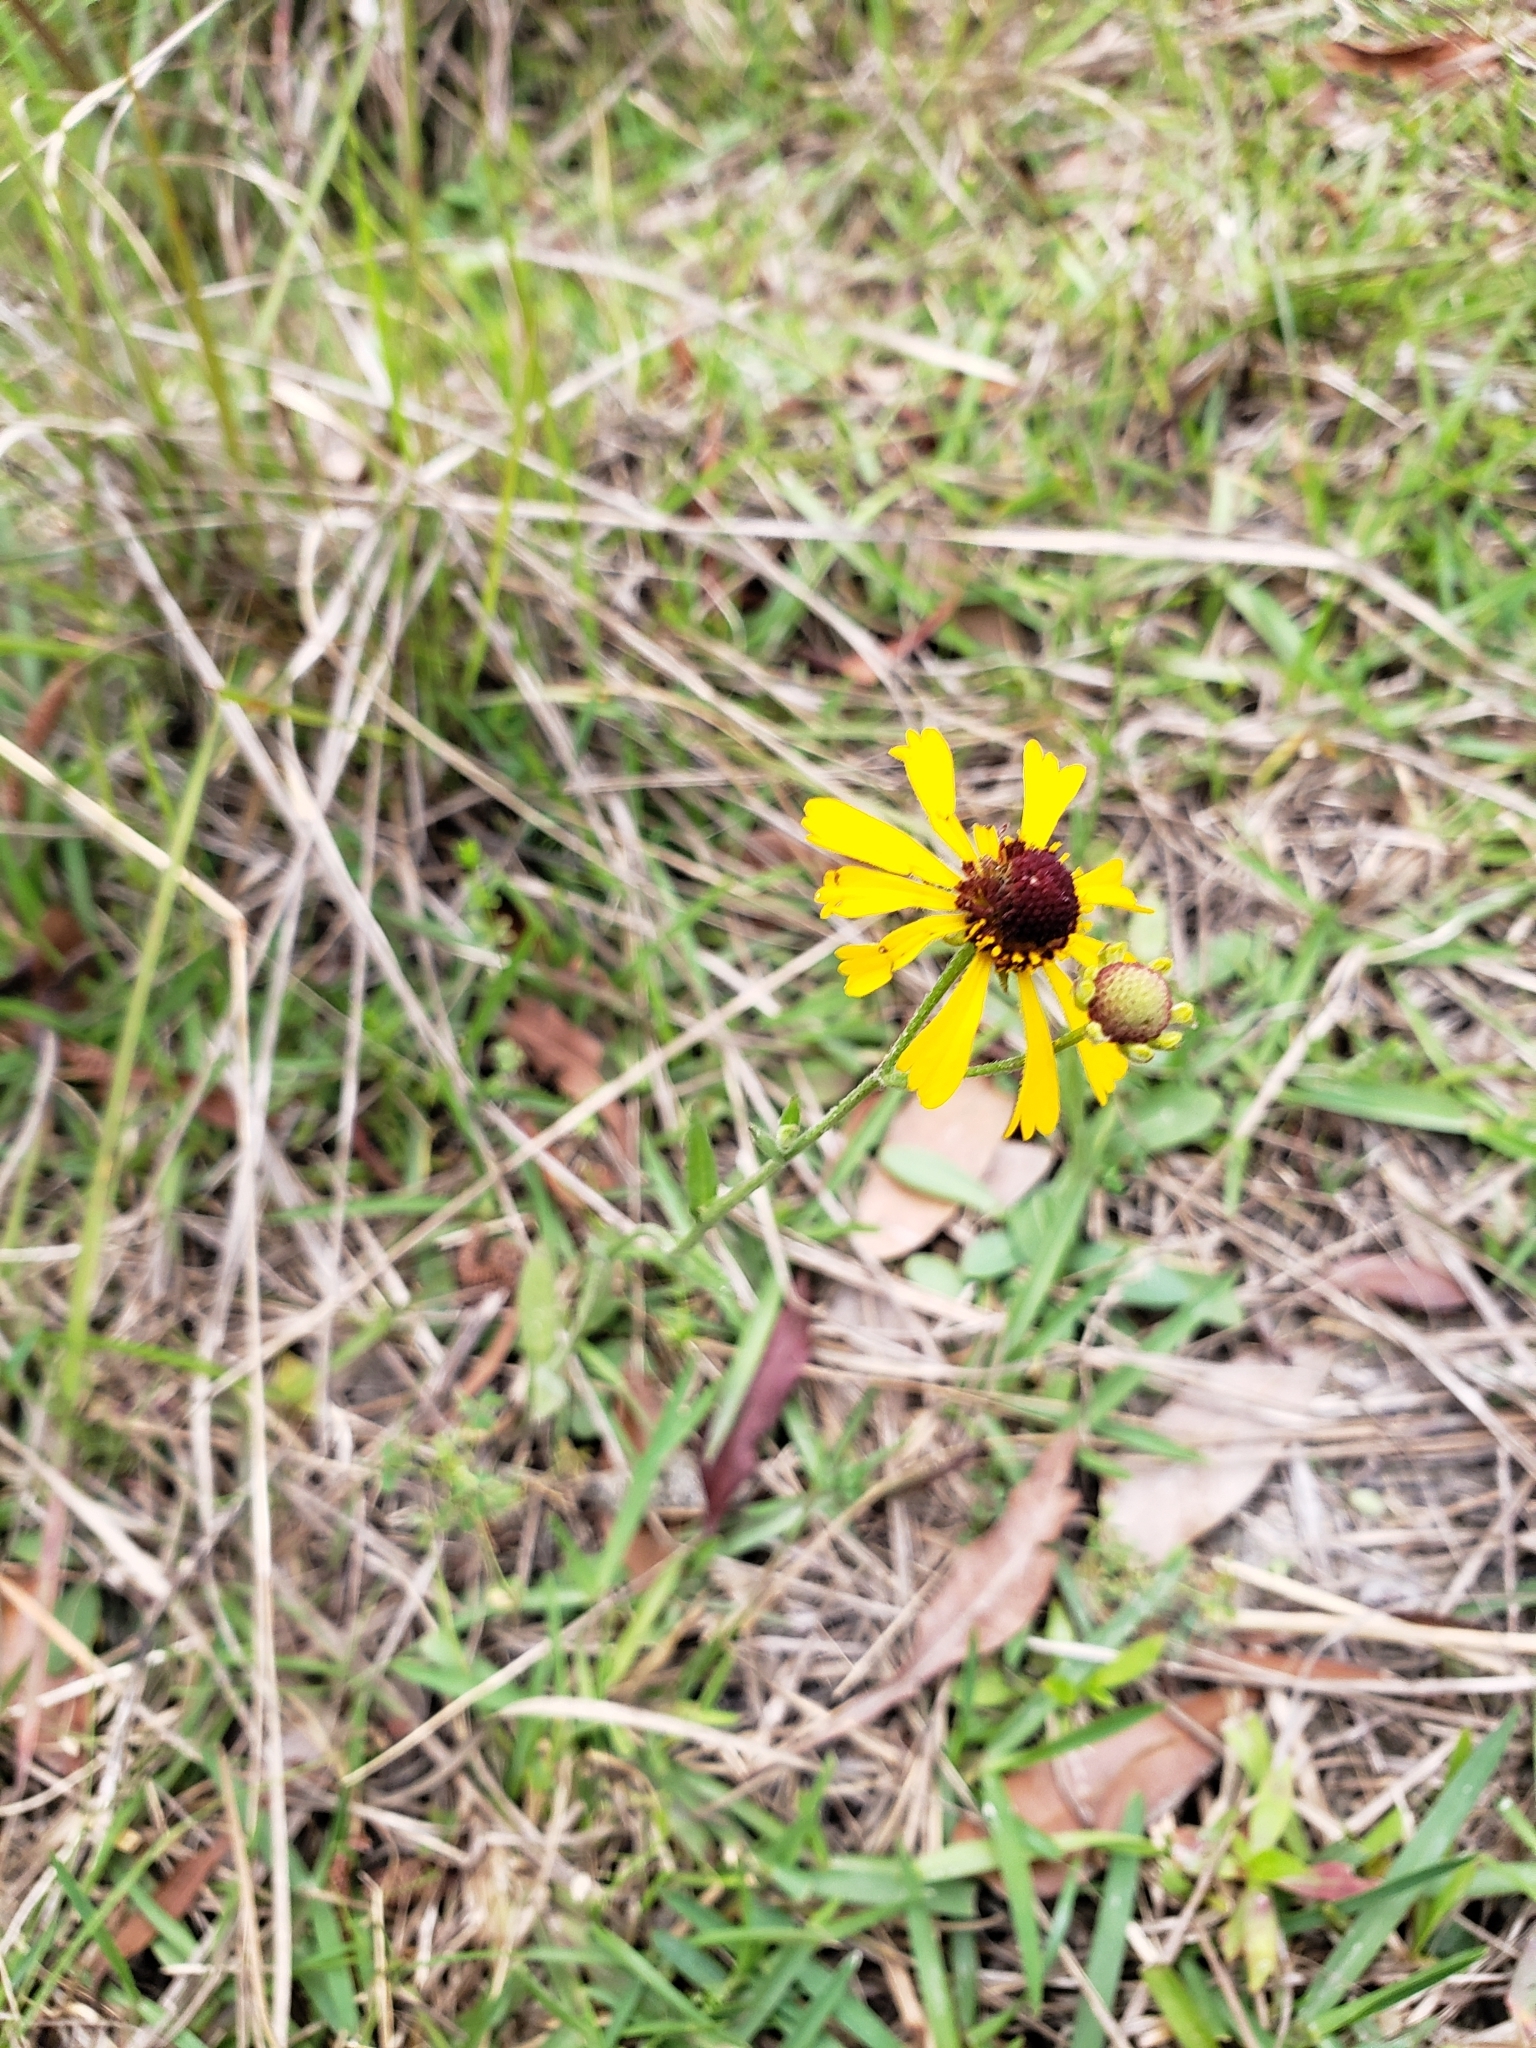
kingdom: Plantae
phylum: Tracheophyta
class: Magnoliopsida
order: Asterales
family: Asteraceae
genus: Helenium
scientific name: Helenium flexuosum
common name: Naked-flowered sneezeweed
